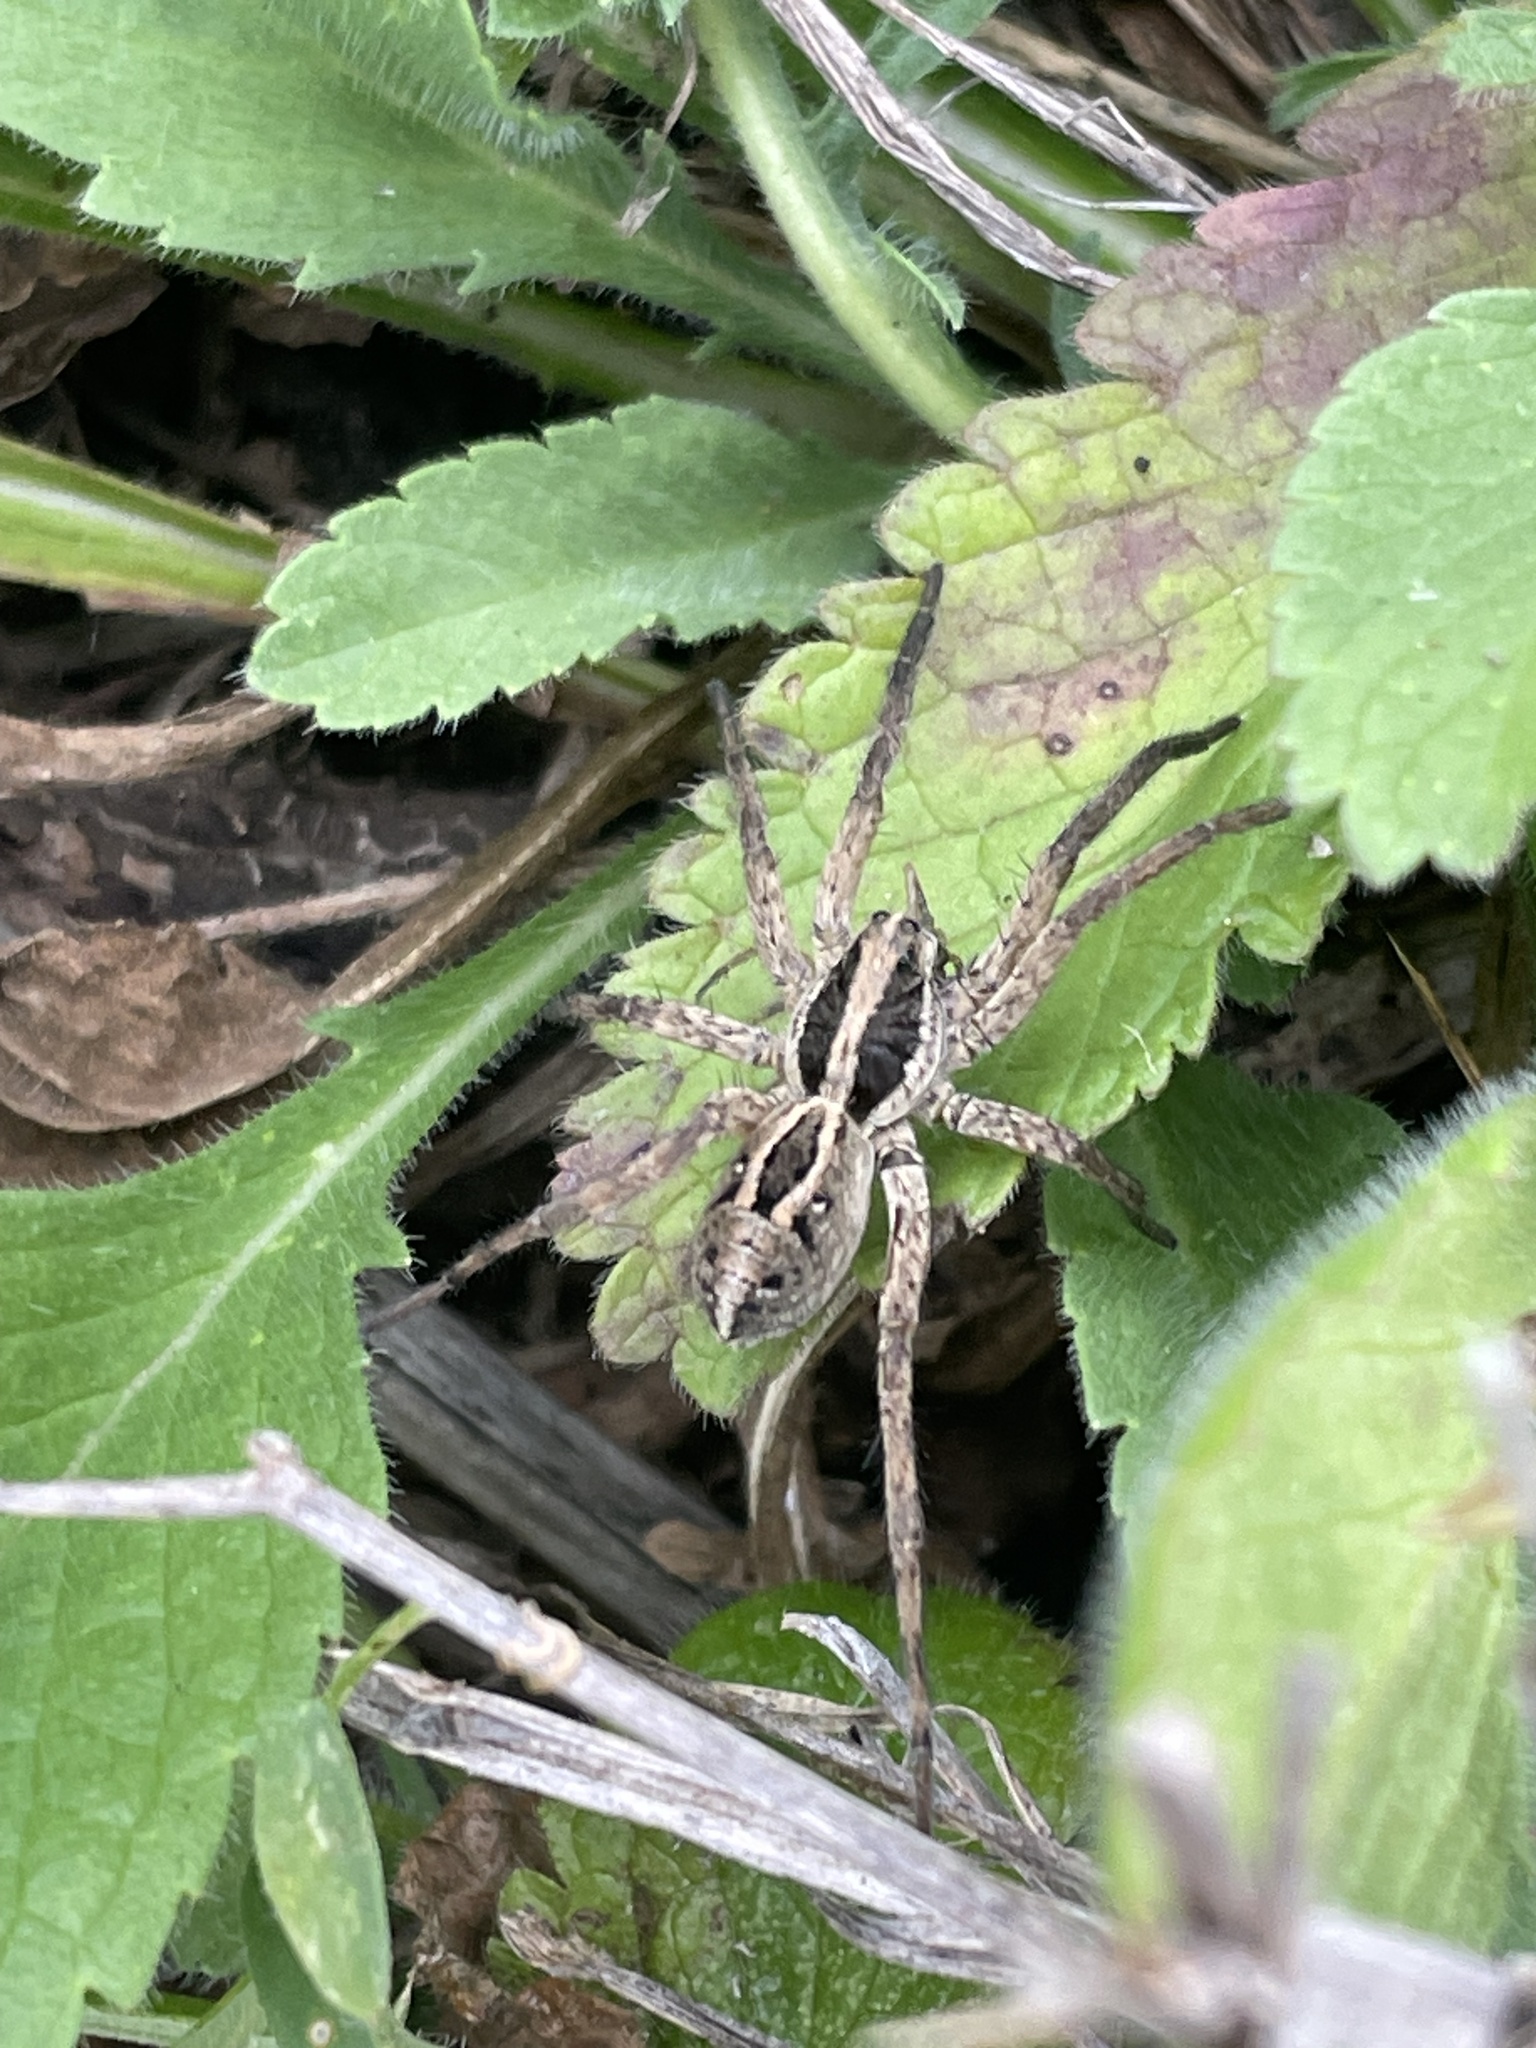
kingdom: Animalia
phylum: Arthropoda
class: Arachnida
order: Araneae
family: Lycosidae
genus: Schizocosa
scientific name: Schizocosa avida
